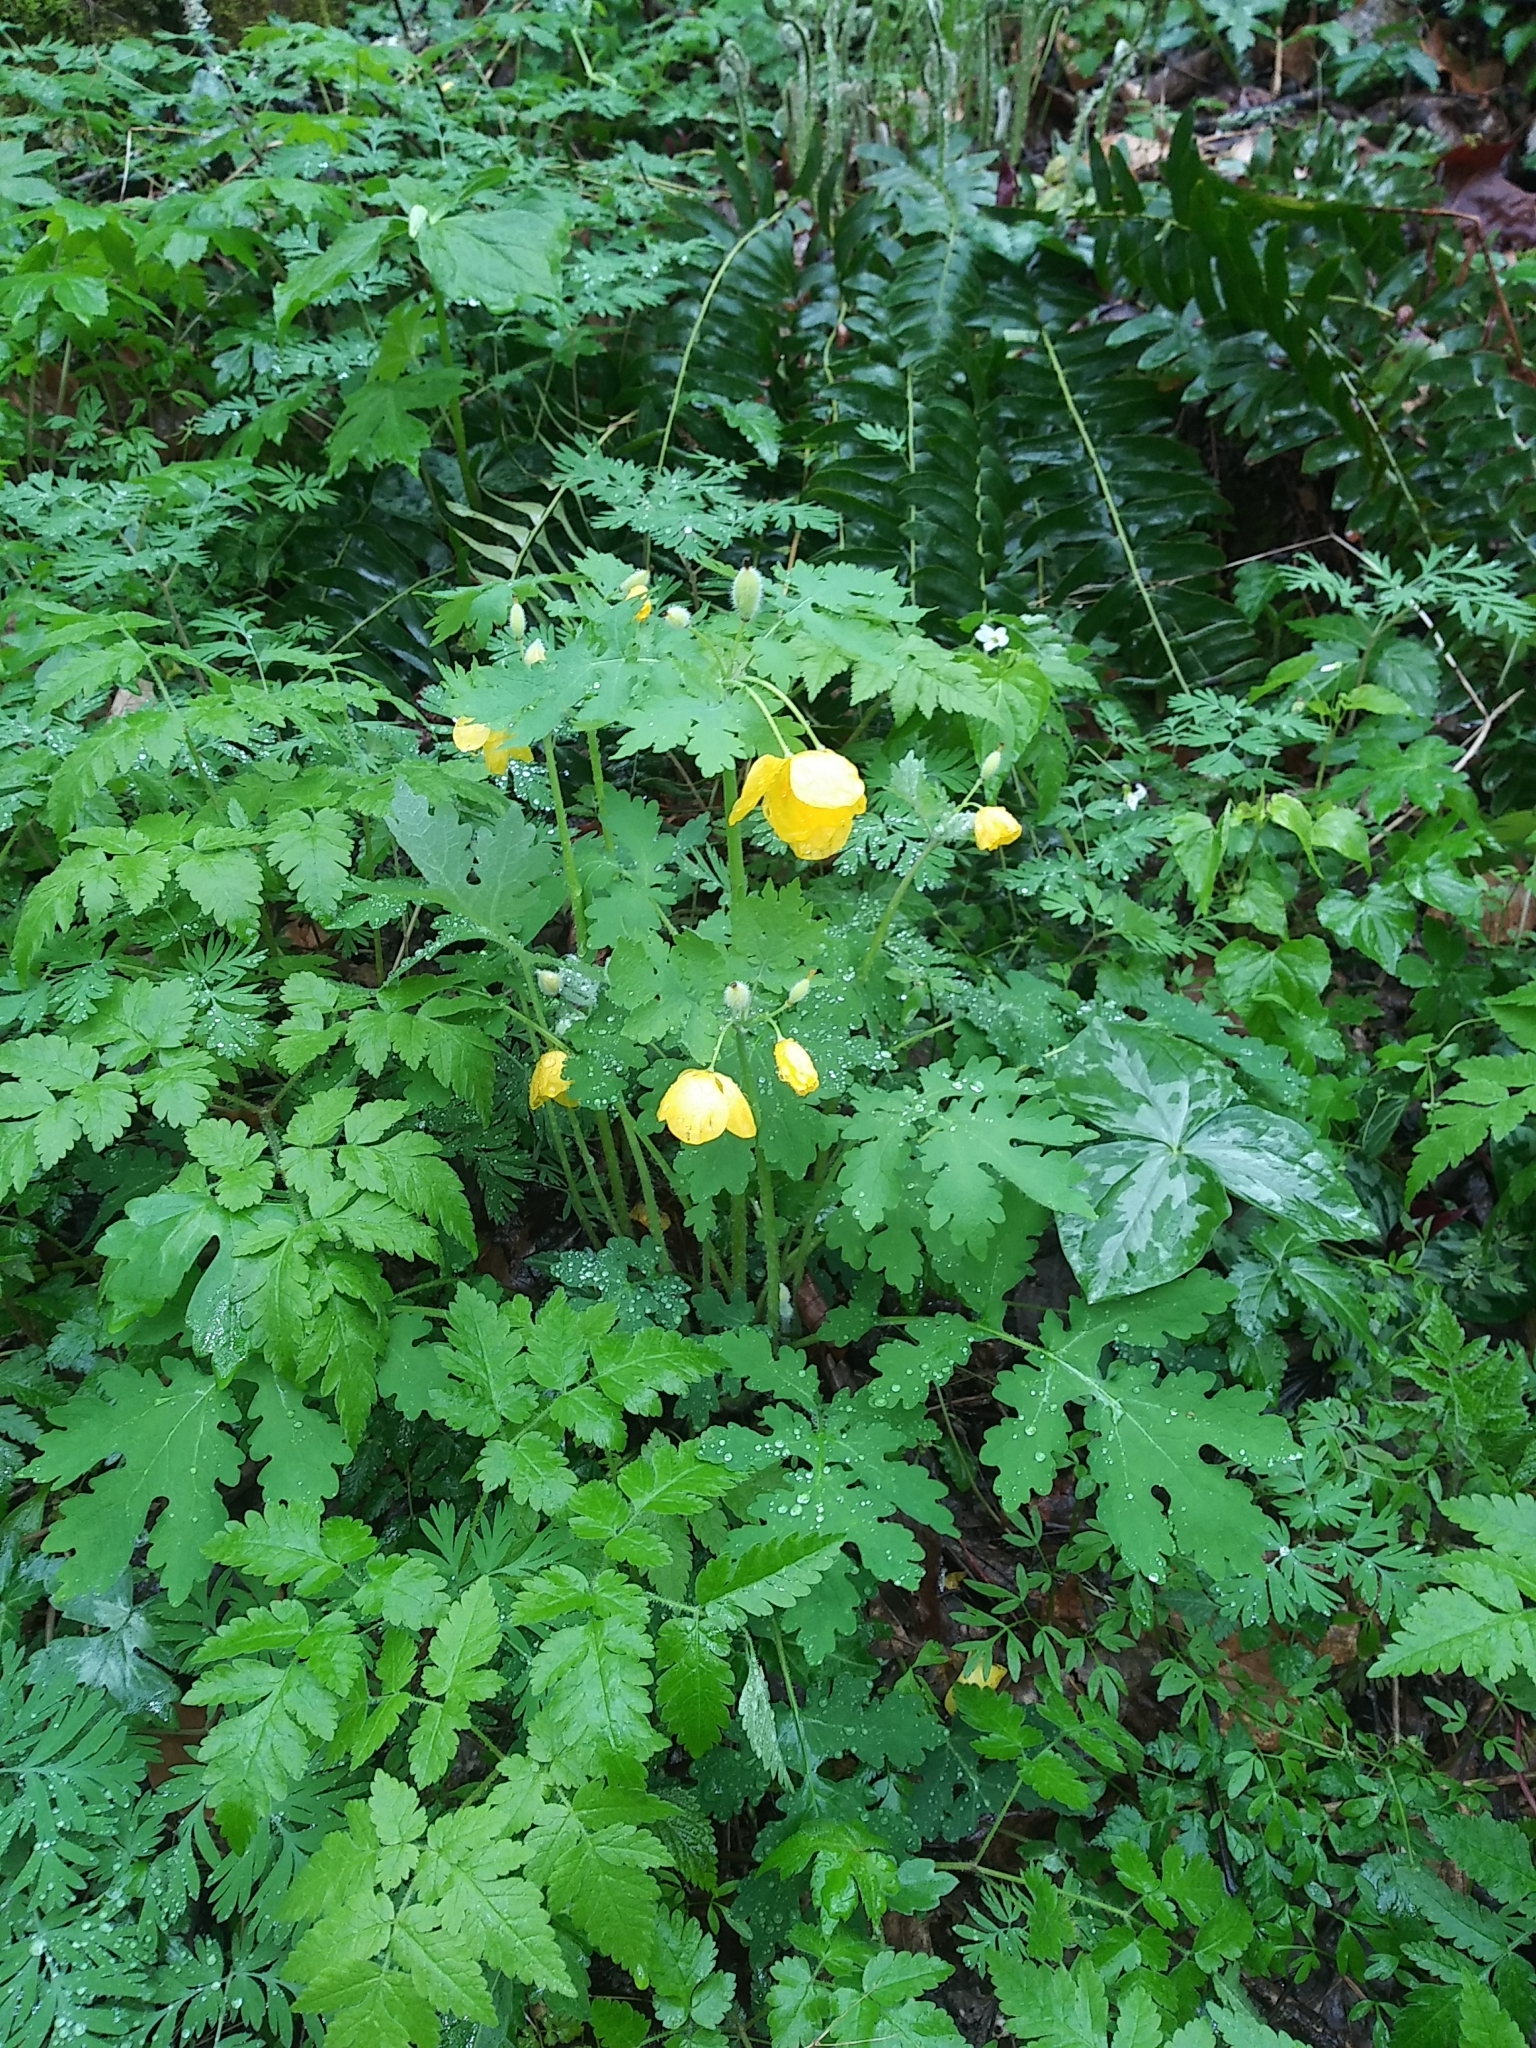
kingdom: Plantae
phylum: Tracheophyta
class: Magnoliopsida
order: Ranunculales
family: Papaveraceae
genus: Stylophorum
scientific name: Stylophorum diphyllum
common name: Celandine poppy
